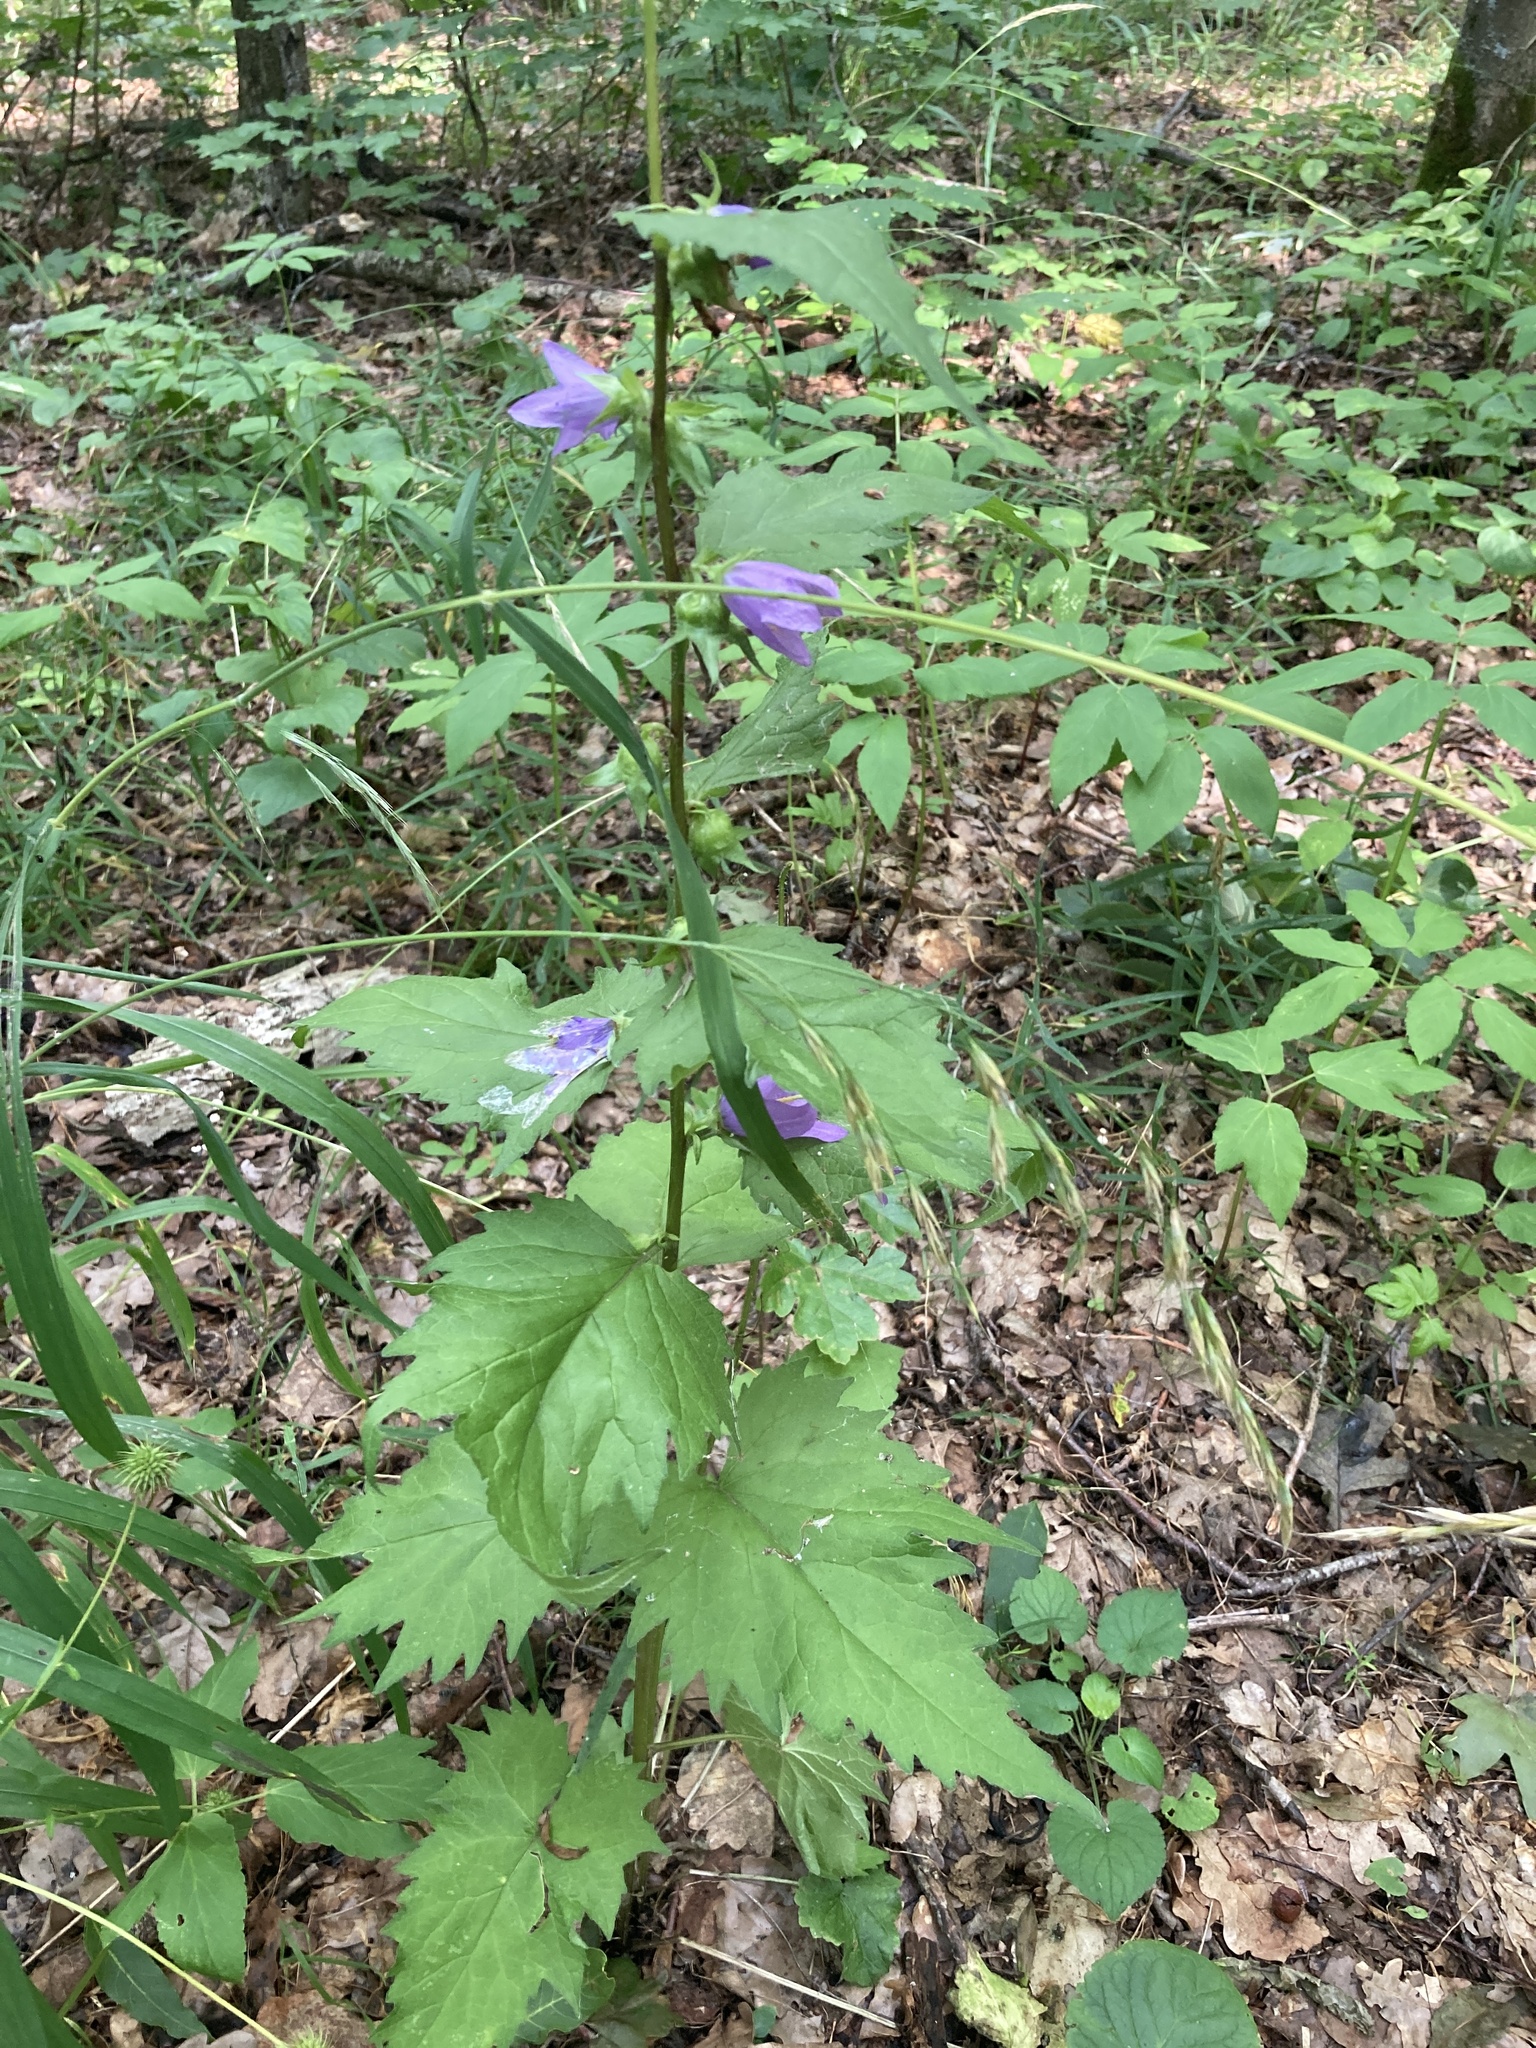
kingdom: Plantae
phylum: Tracheophyta
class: Magnoliopsida
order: Asterales
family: Campanulaceae
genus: Campanula
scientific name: Campanula trachelium
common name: Nettle-leaved bellflower
